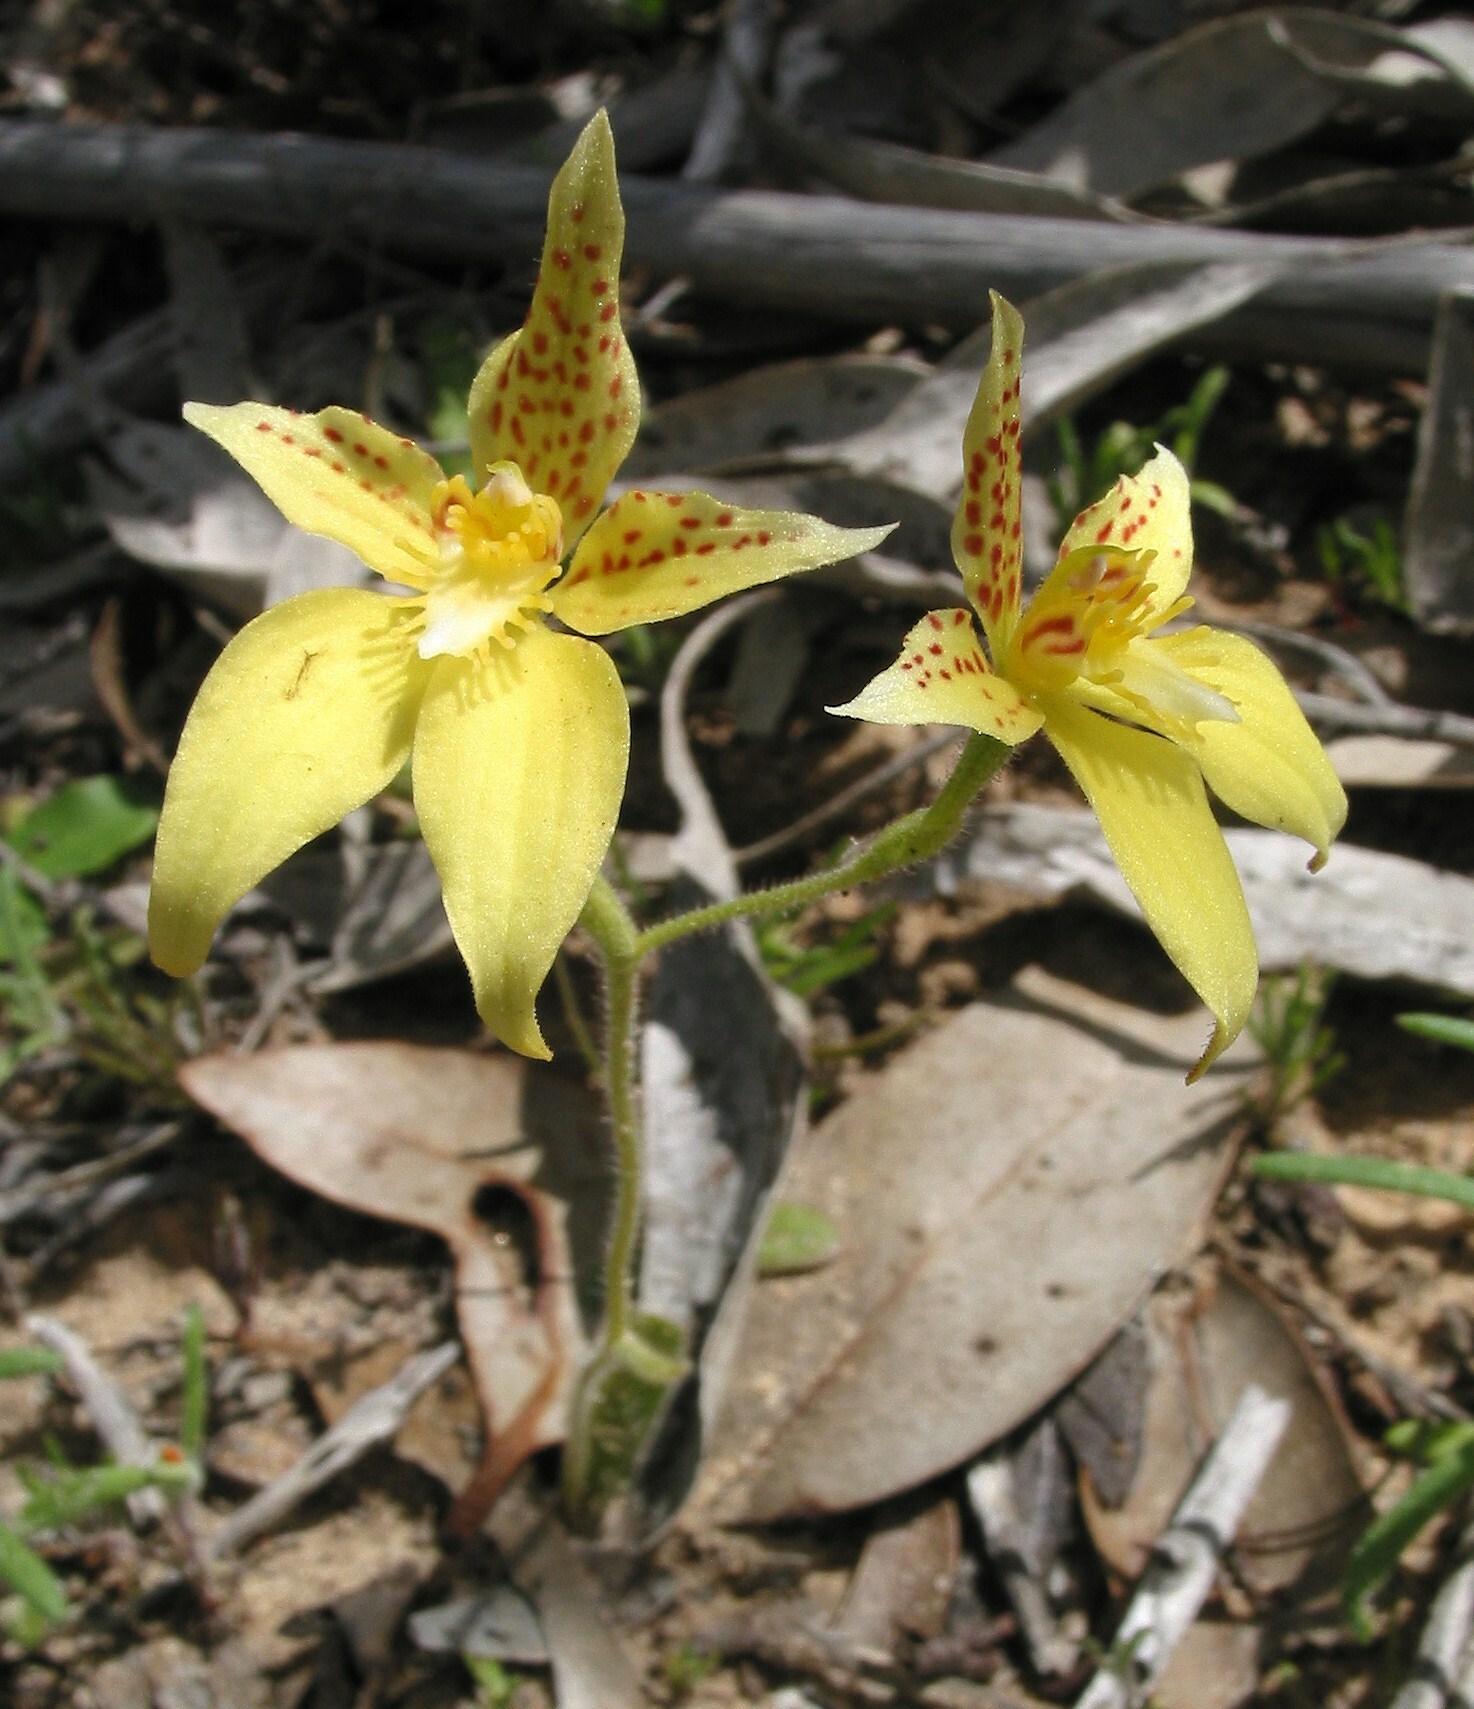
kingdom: Plantae
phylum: Tracheophyta
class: Liliopsida
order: Asparagales
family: Orchidaceae
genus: Caladenia
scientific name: Caladenia flava
